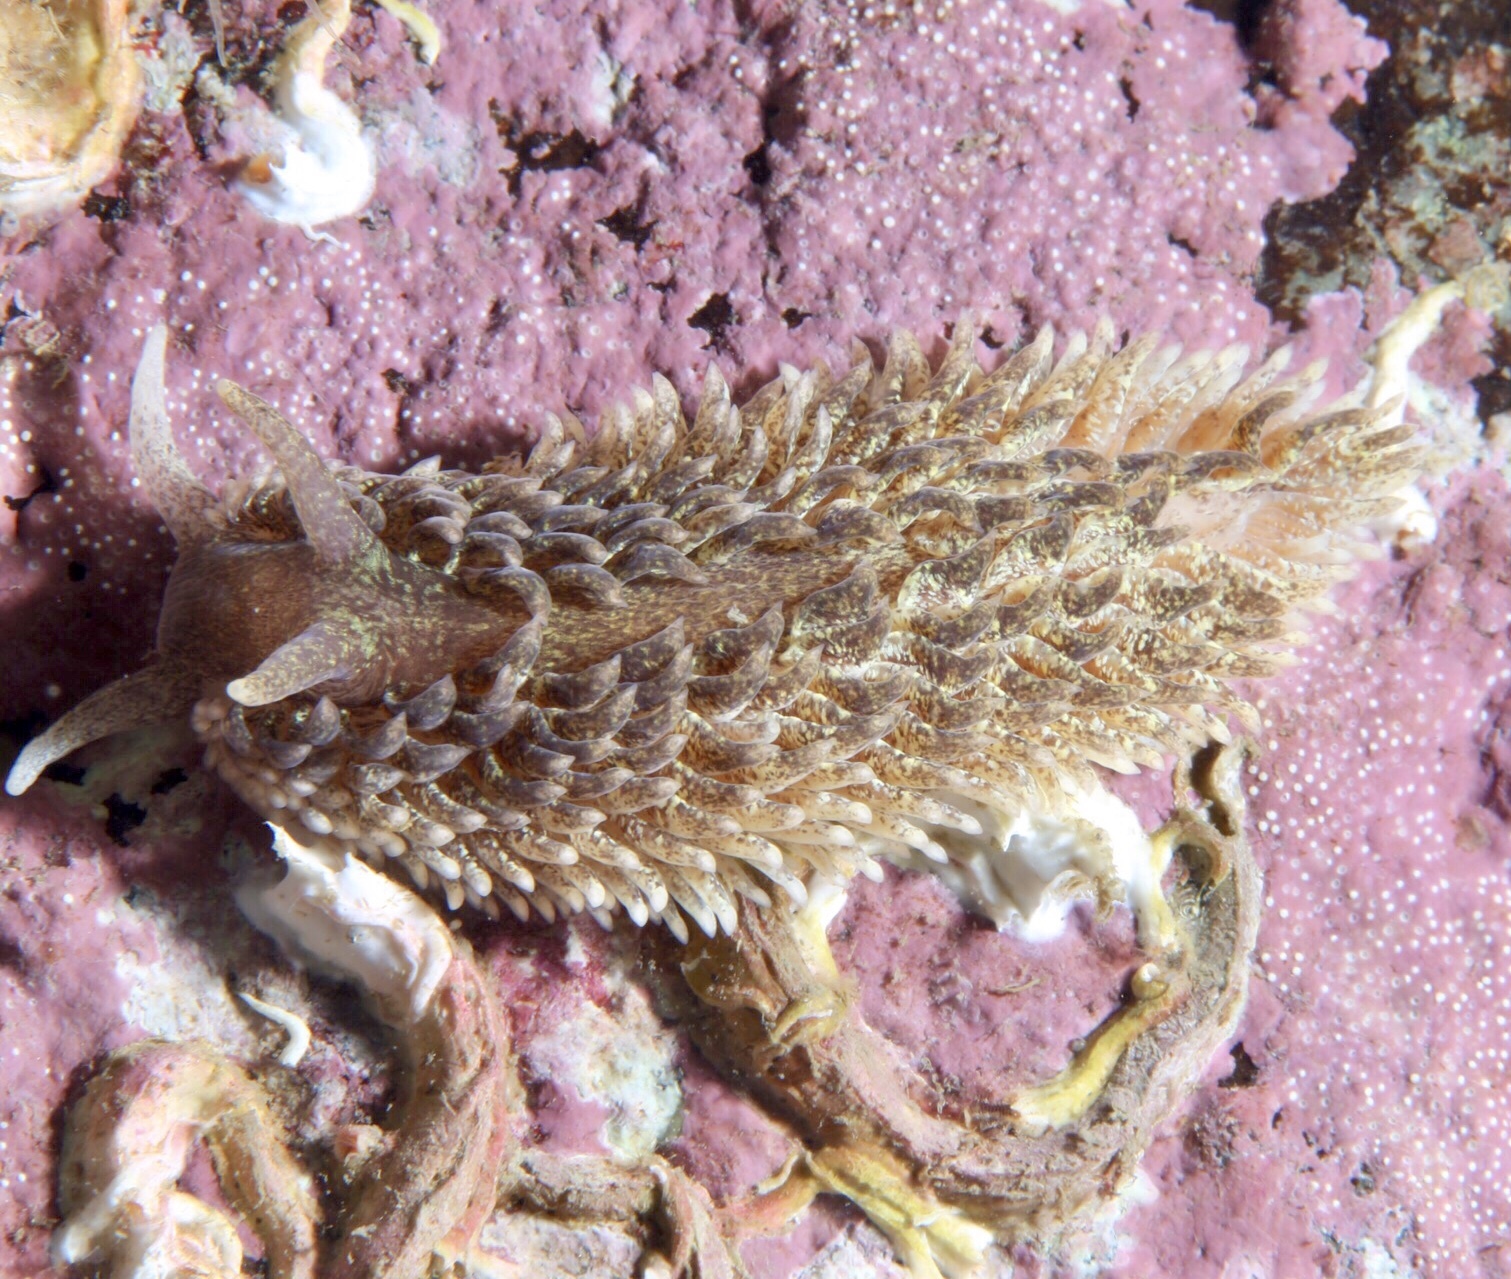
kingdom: Animalia
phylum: Mollusca
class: Gastropoda
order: Nudibranchia
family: Aeolidiidae
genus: Aeolidia
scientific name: Aeolidia papillosa
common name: Common grey sea slug
